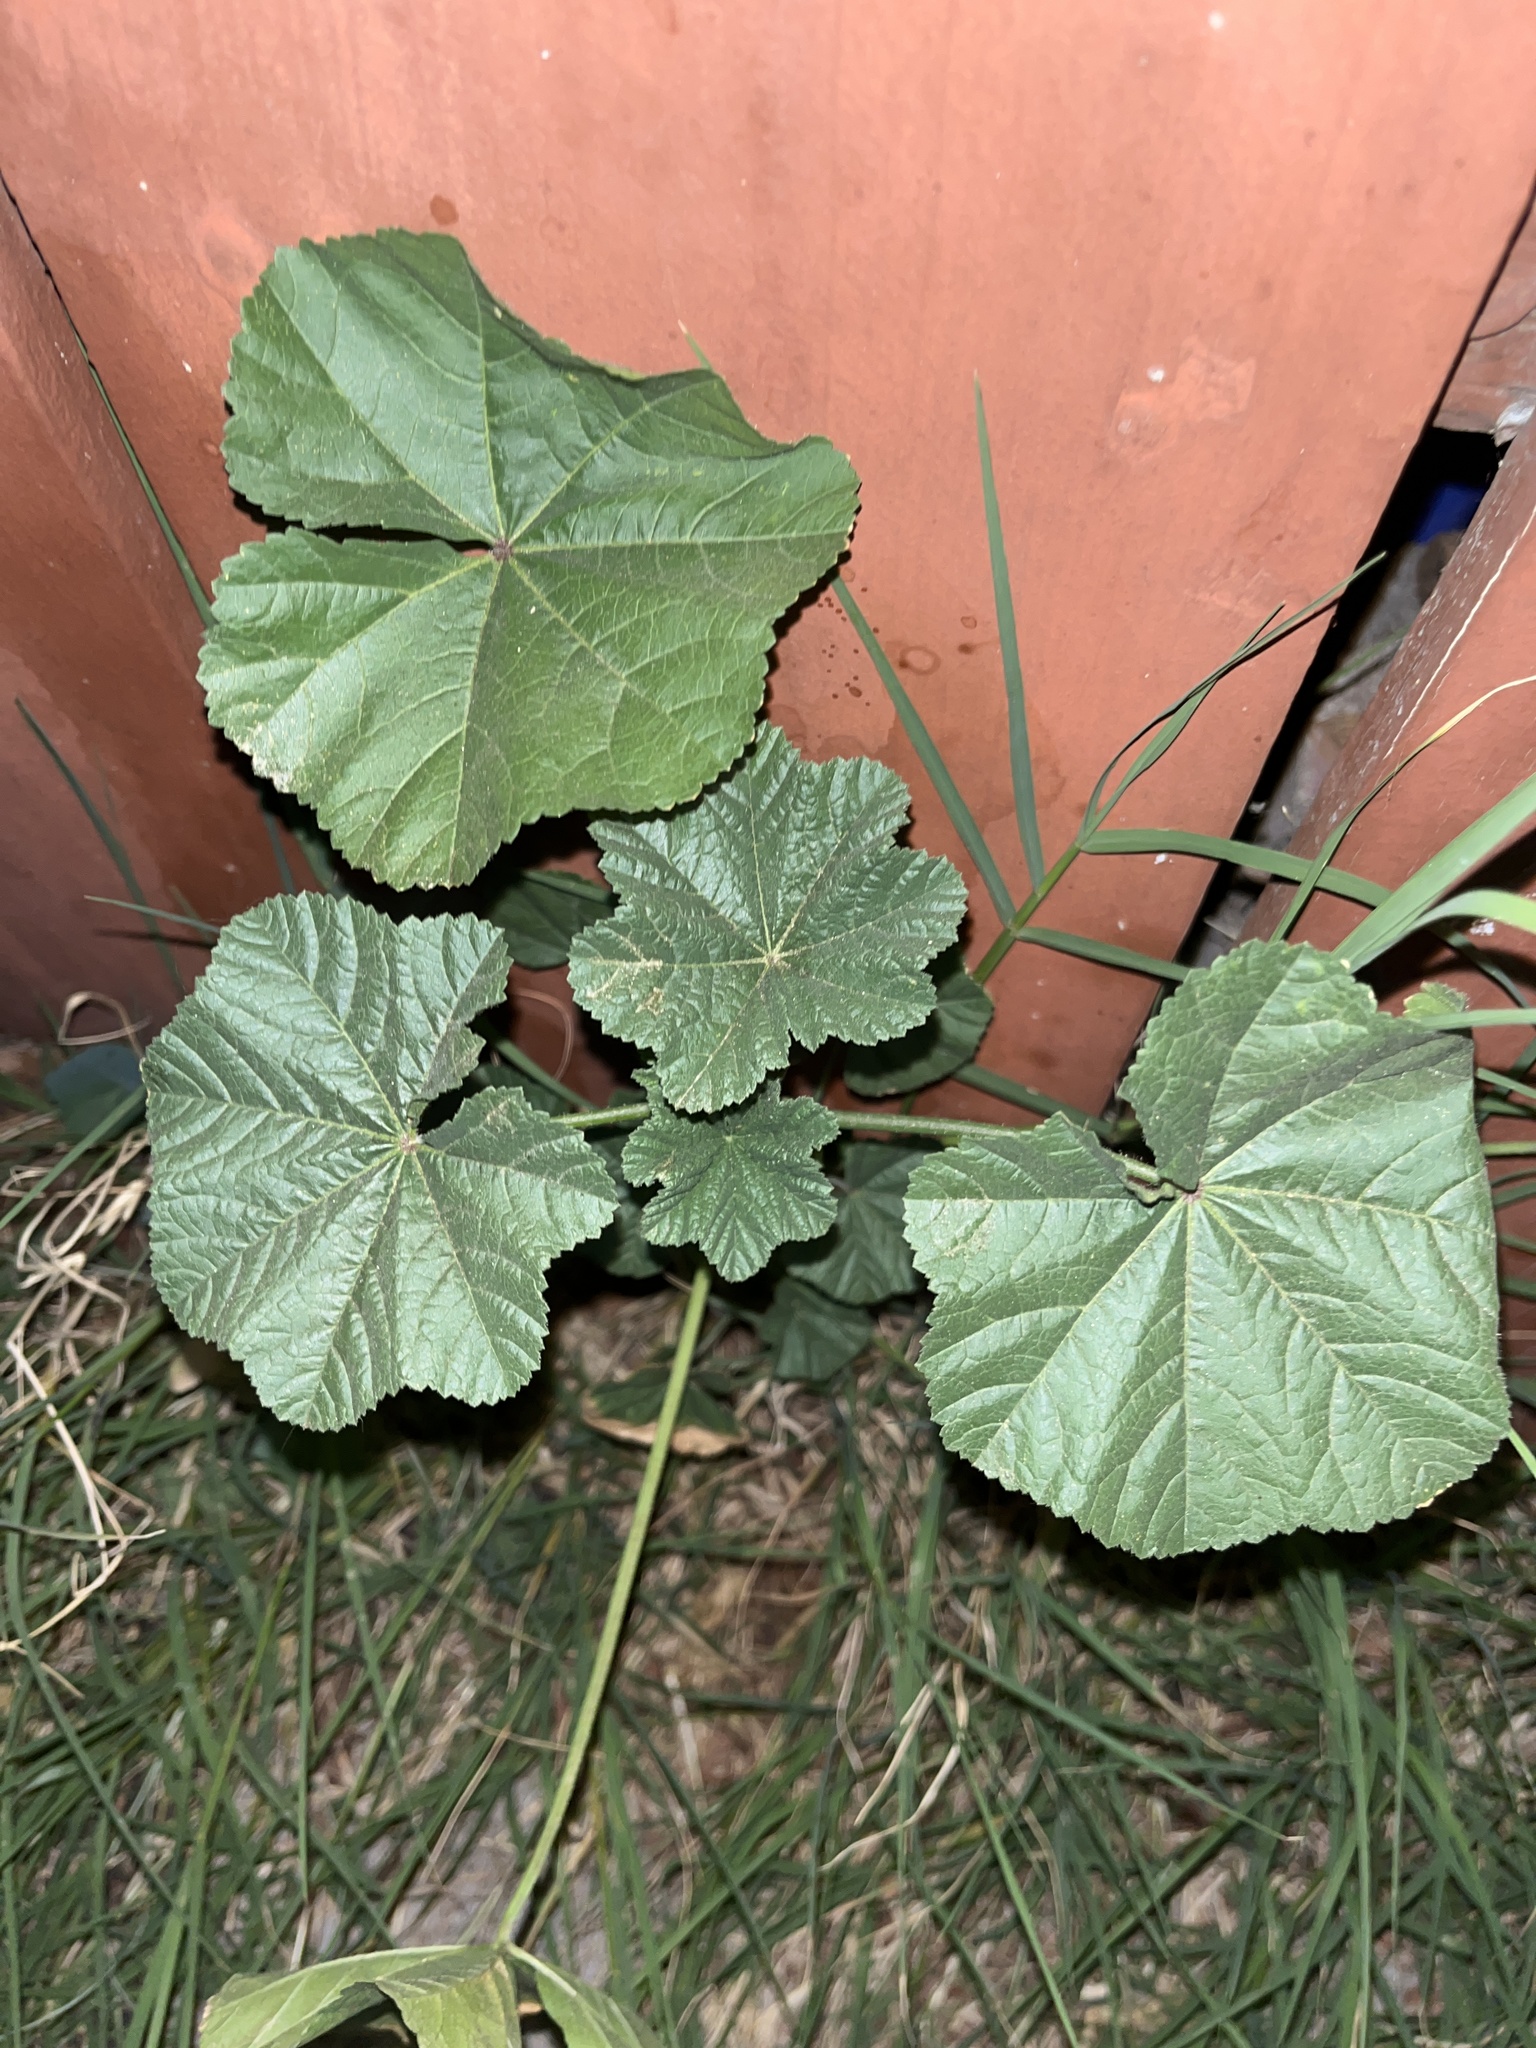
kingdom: Plantae
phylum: Tracheophyta
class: Magnoliopsida
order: Malvales
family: Malvaceae
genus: Malva
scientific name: Malva
